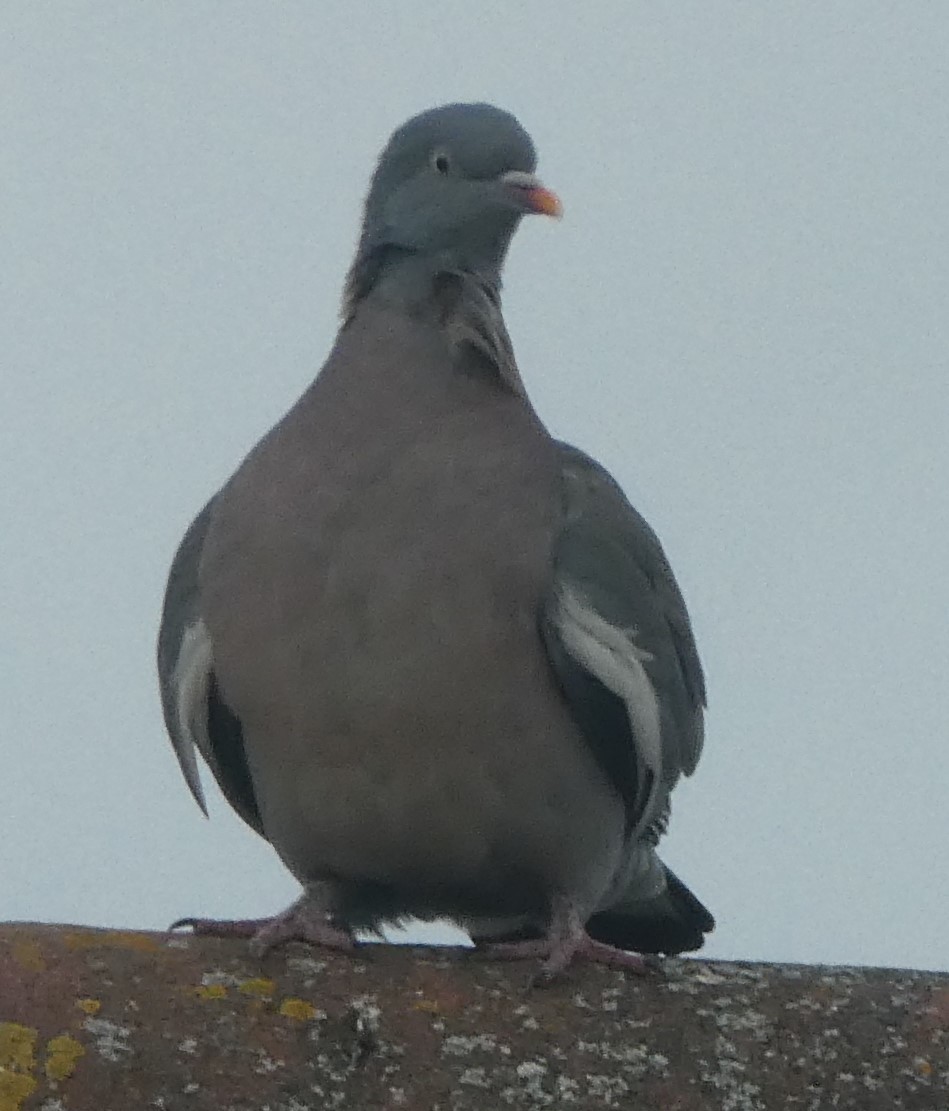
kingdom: Animalia
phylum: Chordata
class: Aves
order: Columbiformes
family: Columbidae
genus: Columba
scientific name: Columba palumbus
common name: Common wood pigeon
